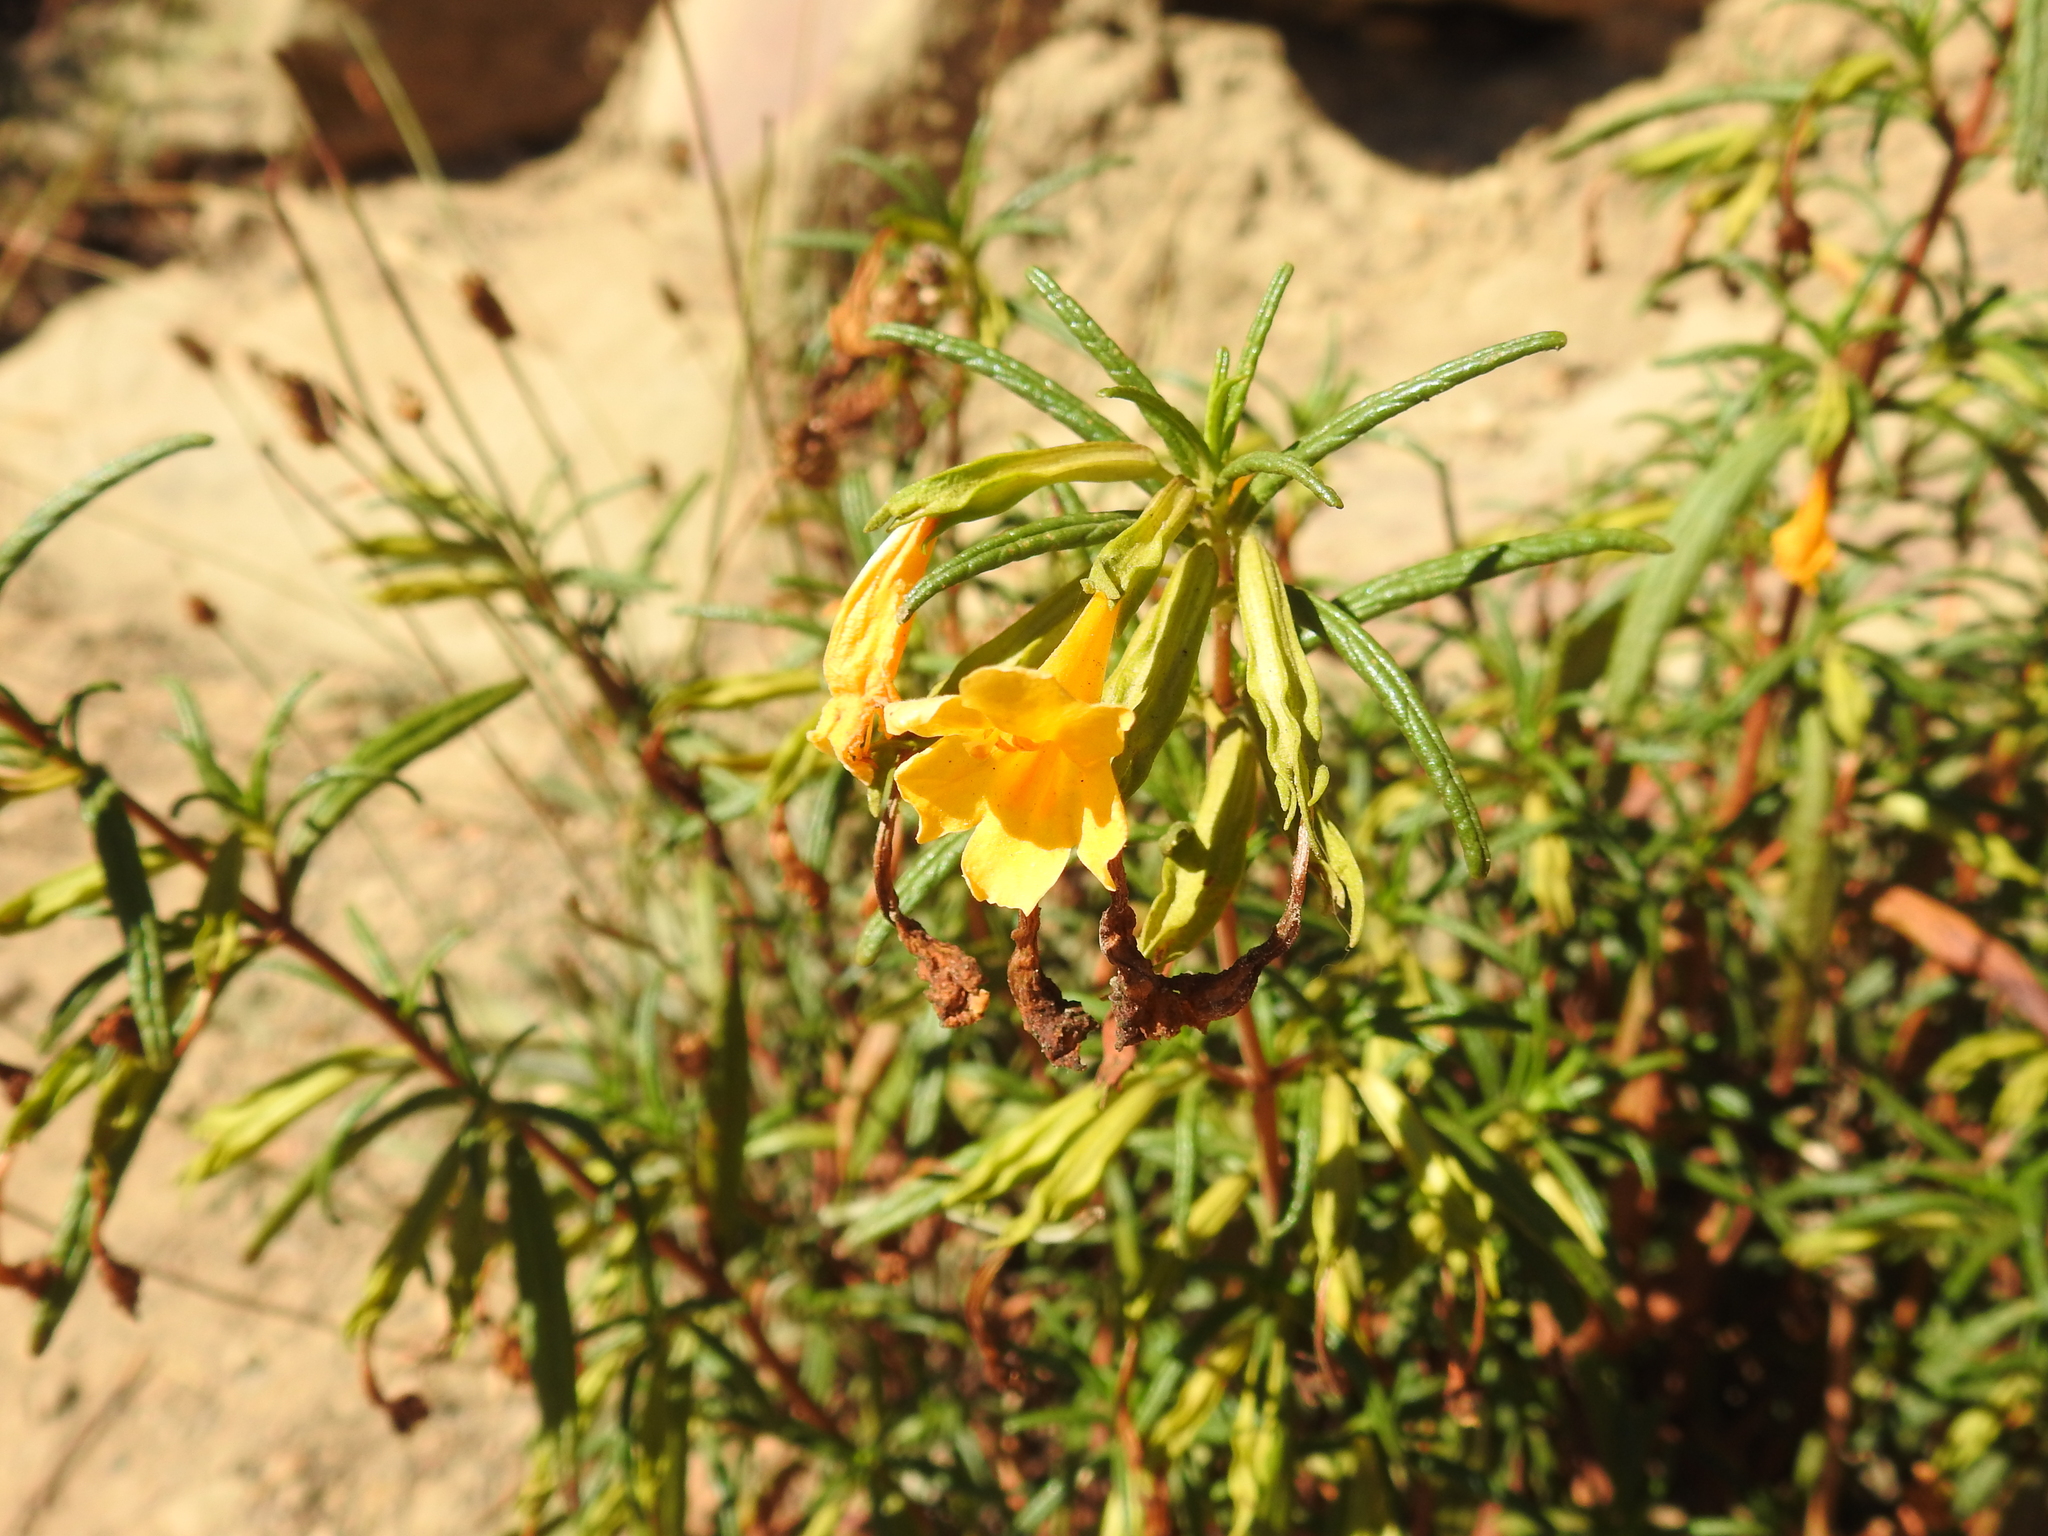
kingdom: Plantae
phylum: Tracheophyta
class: Magnoliopsida
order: Lamiales
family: Phrymaceae
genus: Diplacus
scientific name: Diplacus aurantiacus
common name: Bush monkey-flower
